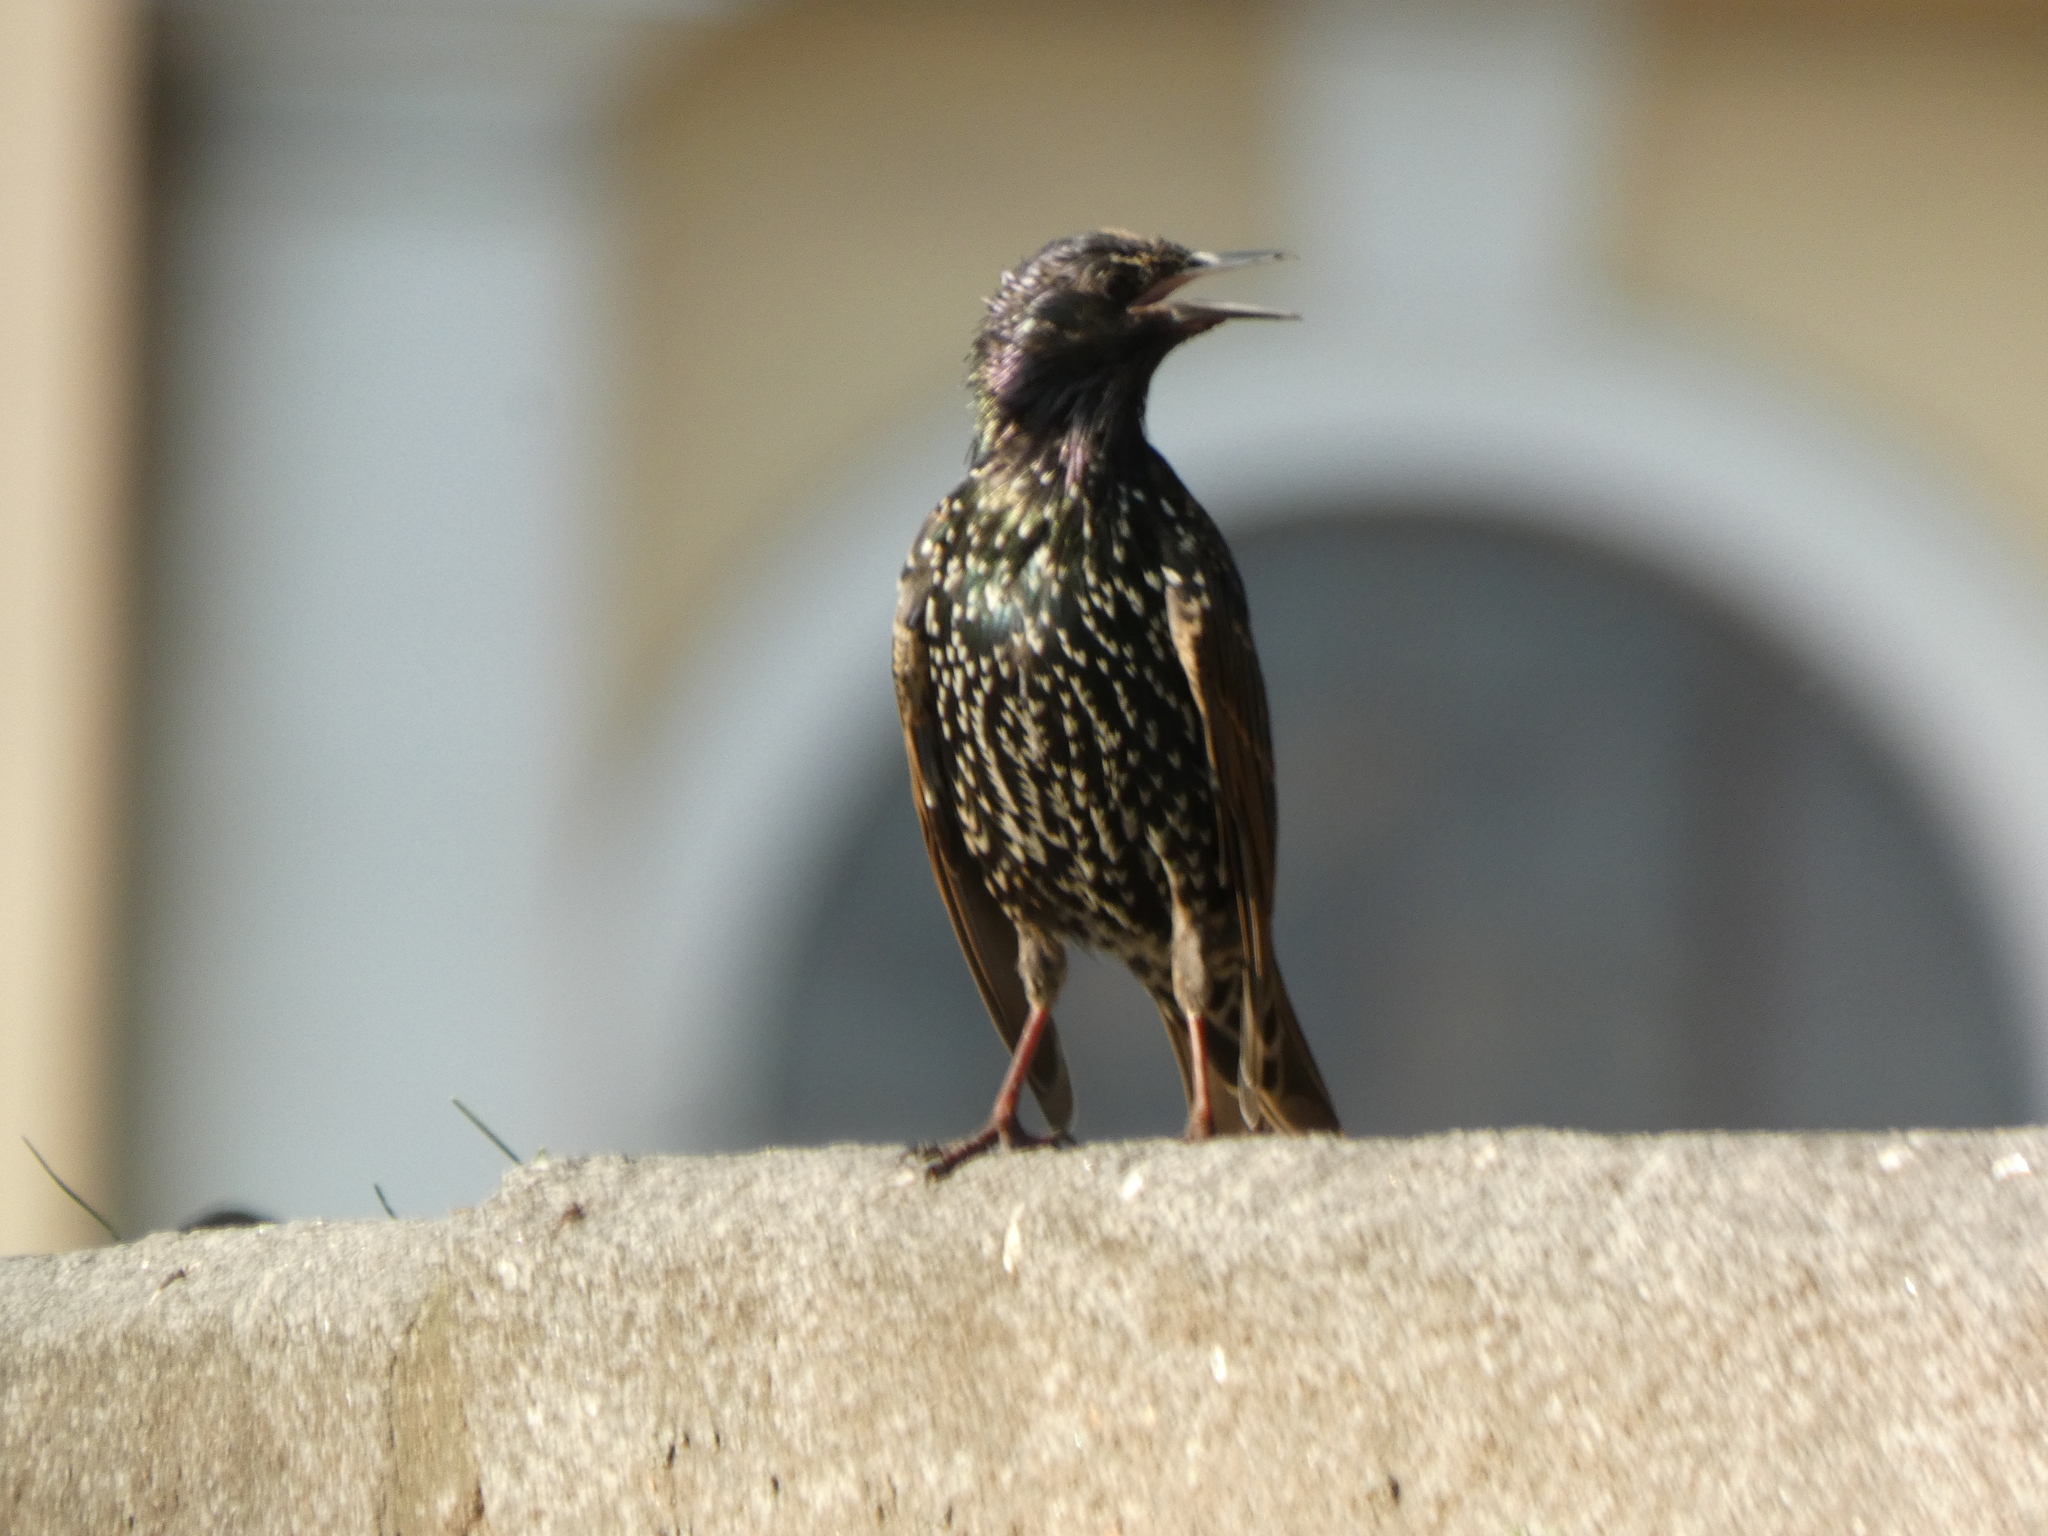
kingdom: Animalia
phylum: Chordata
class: Aves
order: Passeriformes
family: Sturnidae
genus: Sturnus
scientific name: Sturnus vulgaris
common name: Common starling
